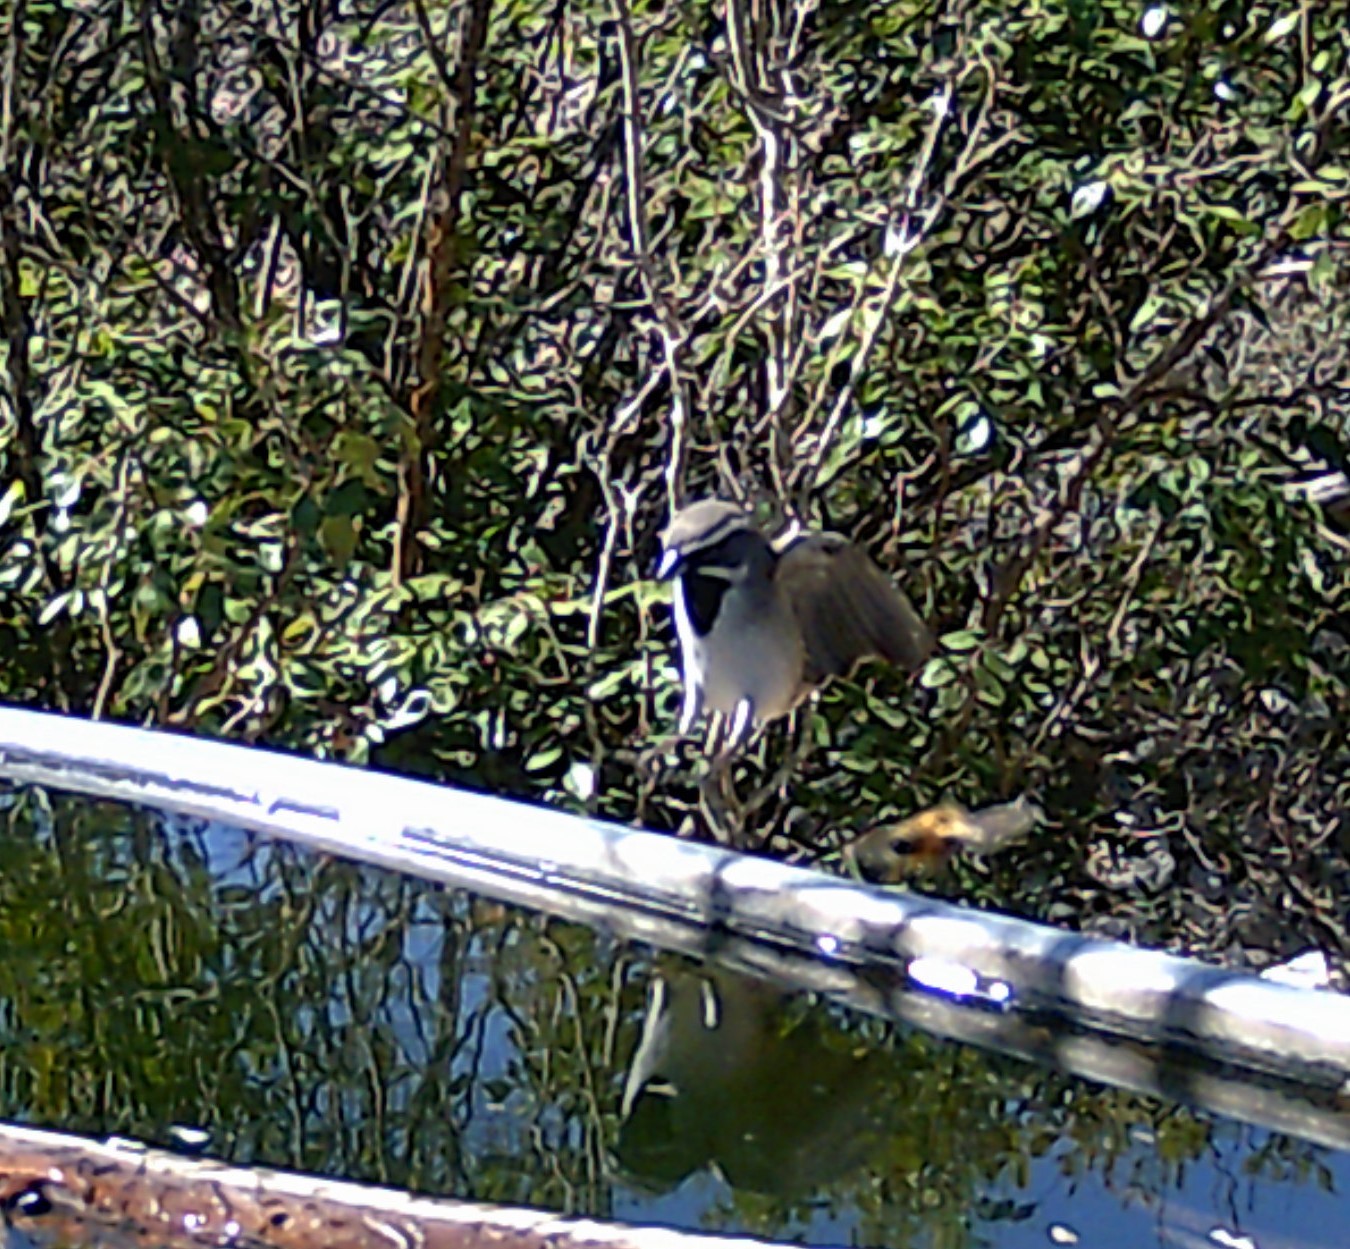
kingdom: Animalia
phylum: Chordata
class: Aves
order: Passeriformes
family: Passerellidae
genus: Amphispiza
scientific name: Amphispiza bilineata
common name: Black-throated sparrow
